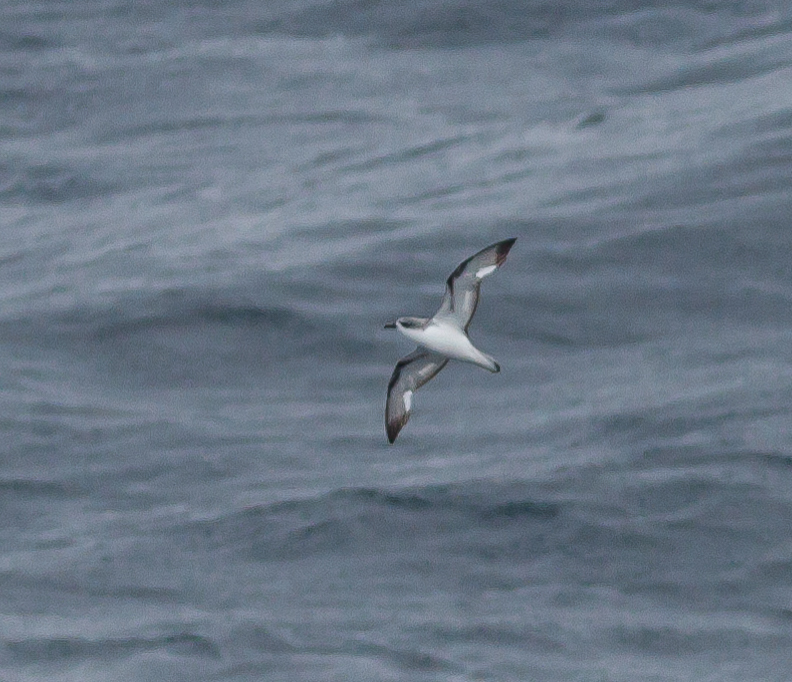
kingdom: Animalia
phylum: Chordata
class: Aves
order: Procellariiformes
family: Procellariidae
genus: Pterodroma
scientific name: Pterodroma cookii
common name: Cook's petrel
